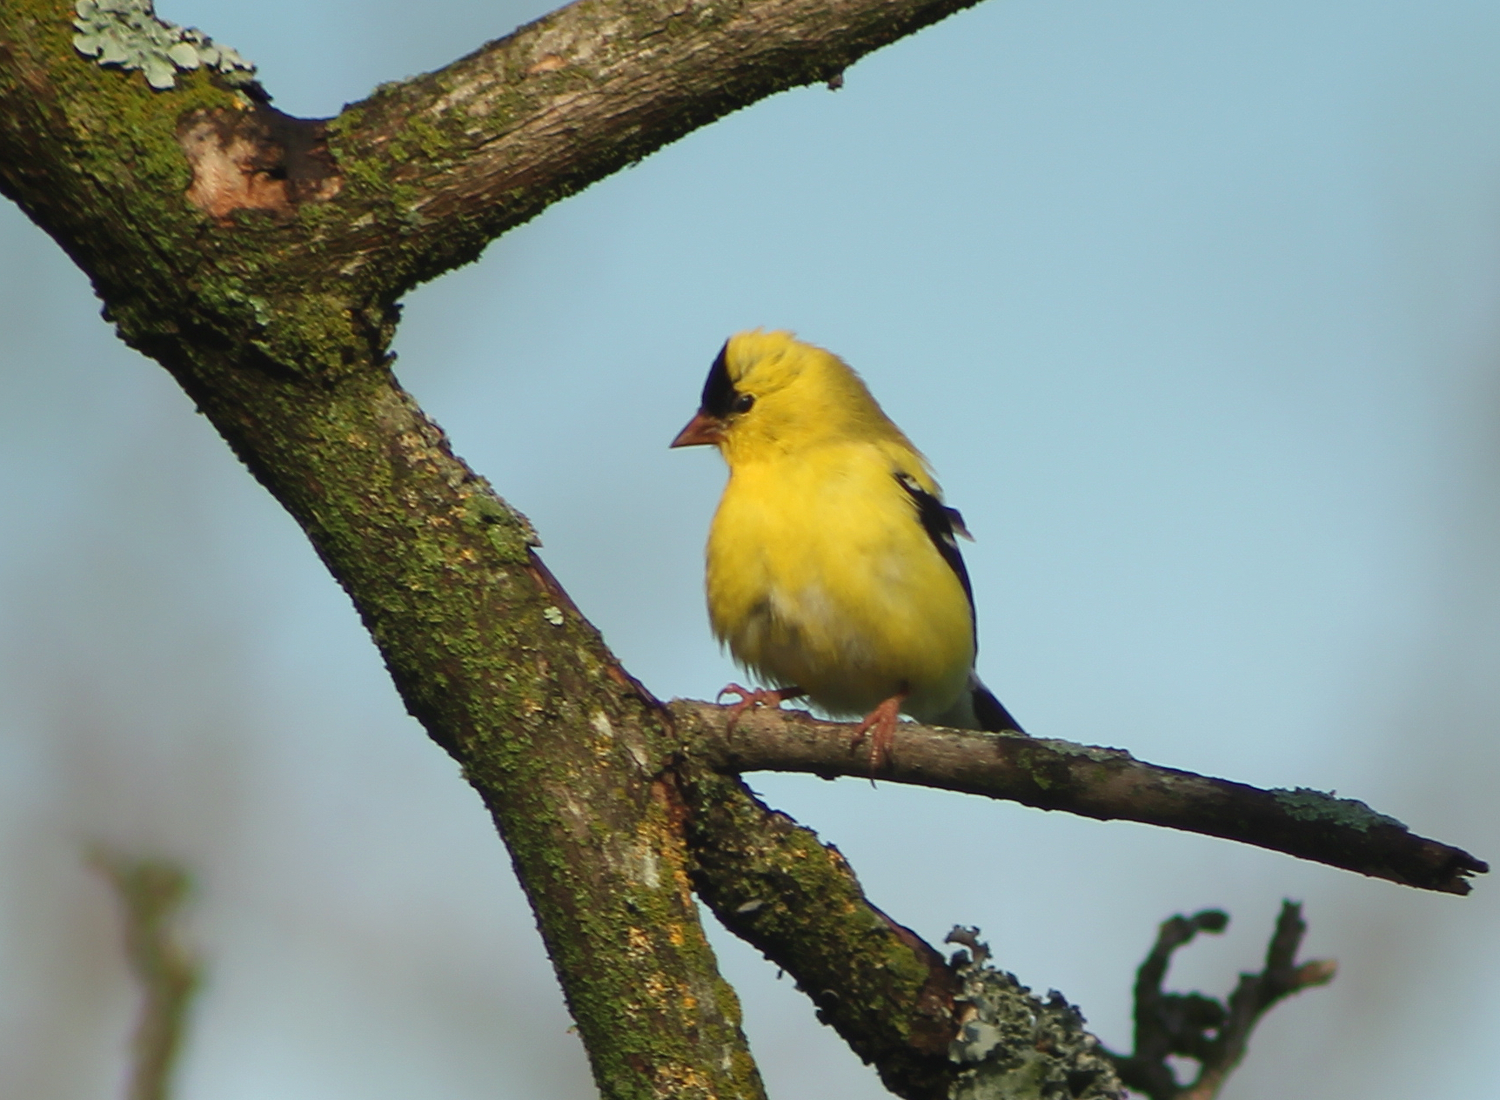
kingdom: Animalia
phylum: Chordata
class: Aves
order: Passeriformes
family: Fringillidae
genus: Spinus
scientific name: Spinus tristis
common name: American goldfinch
